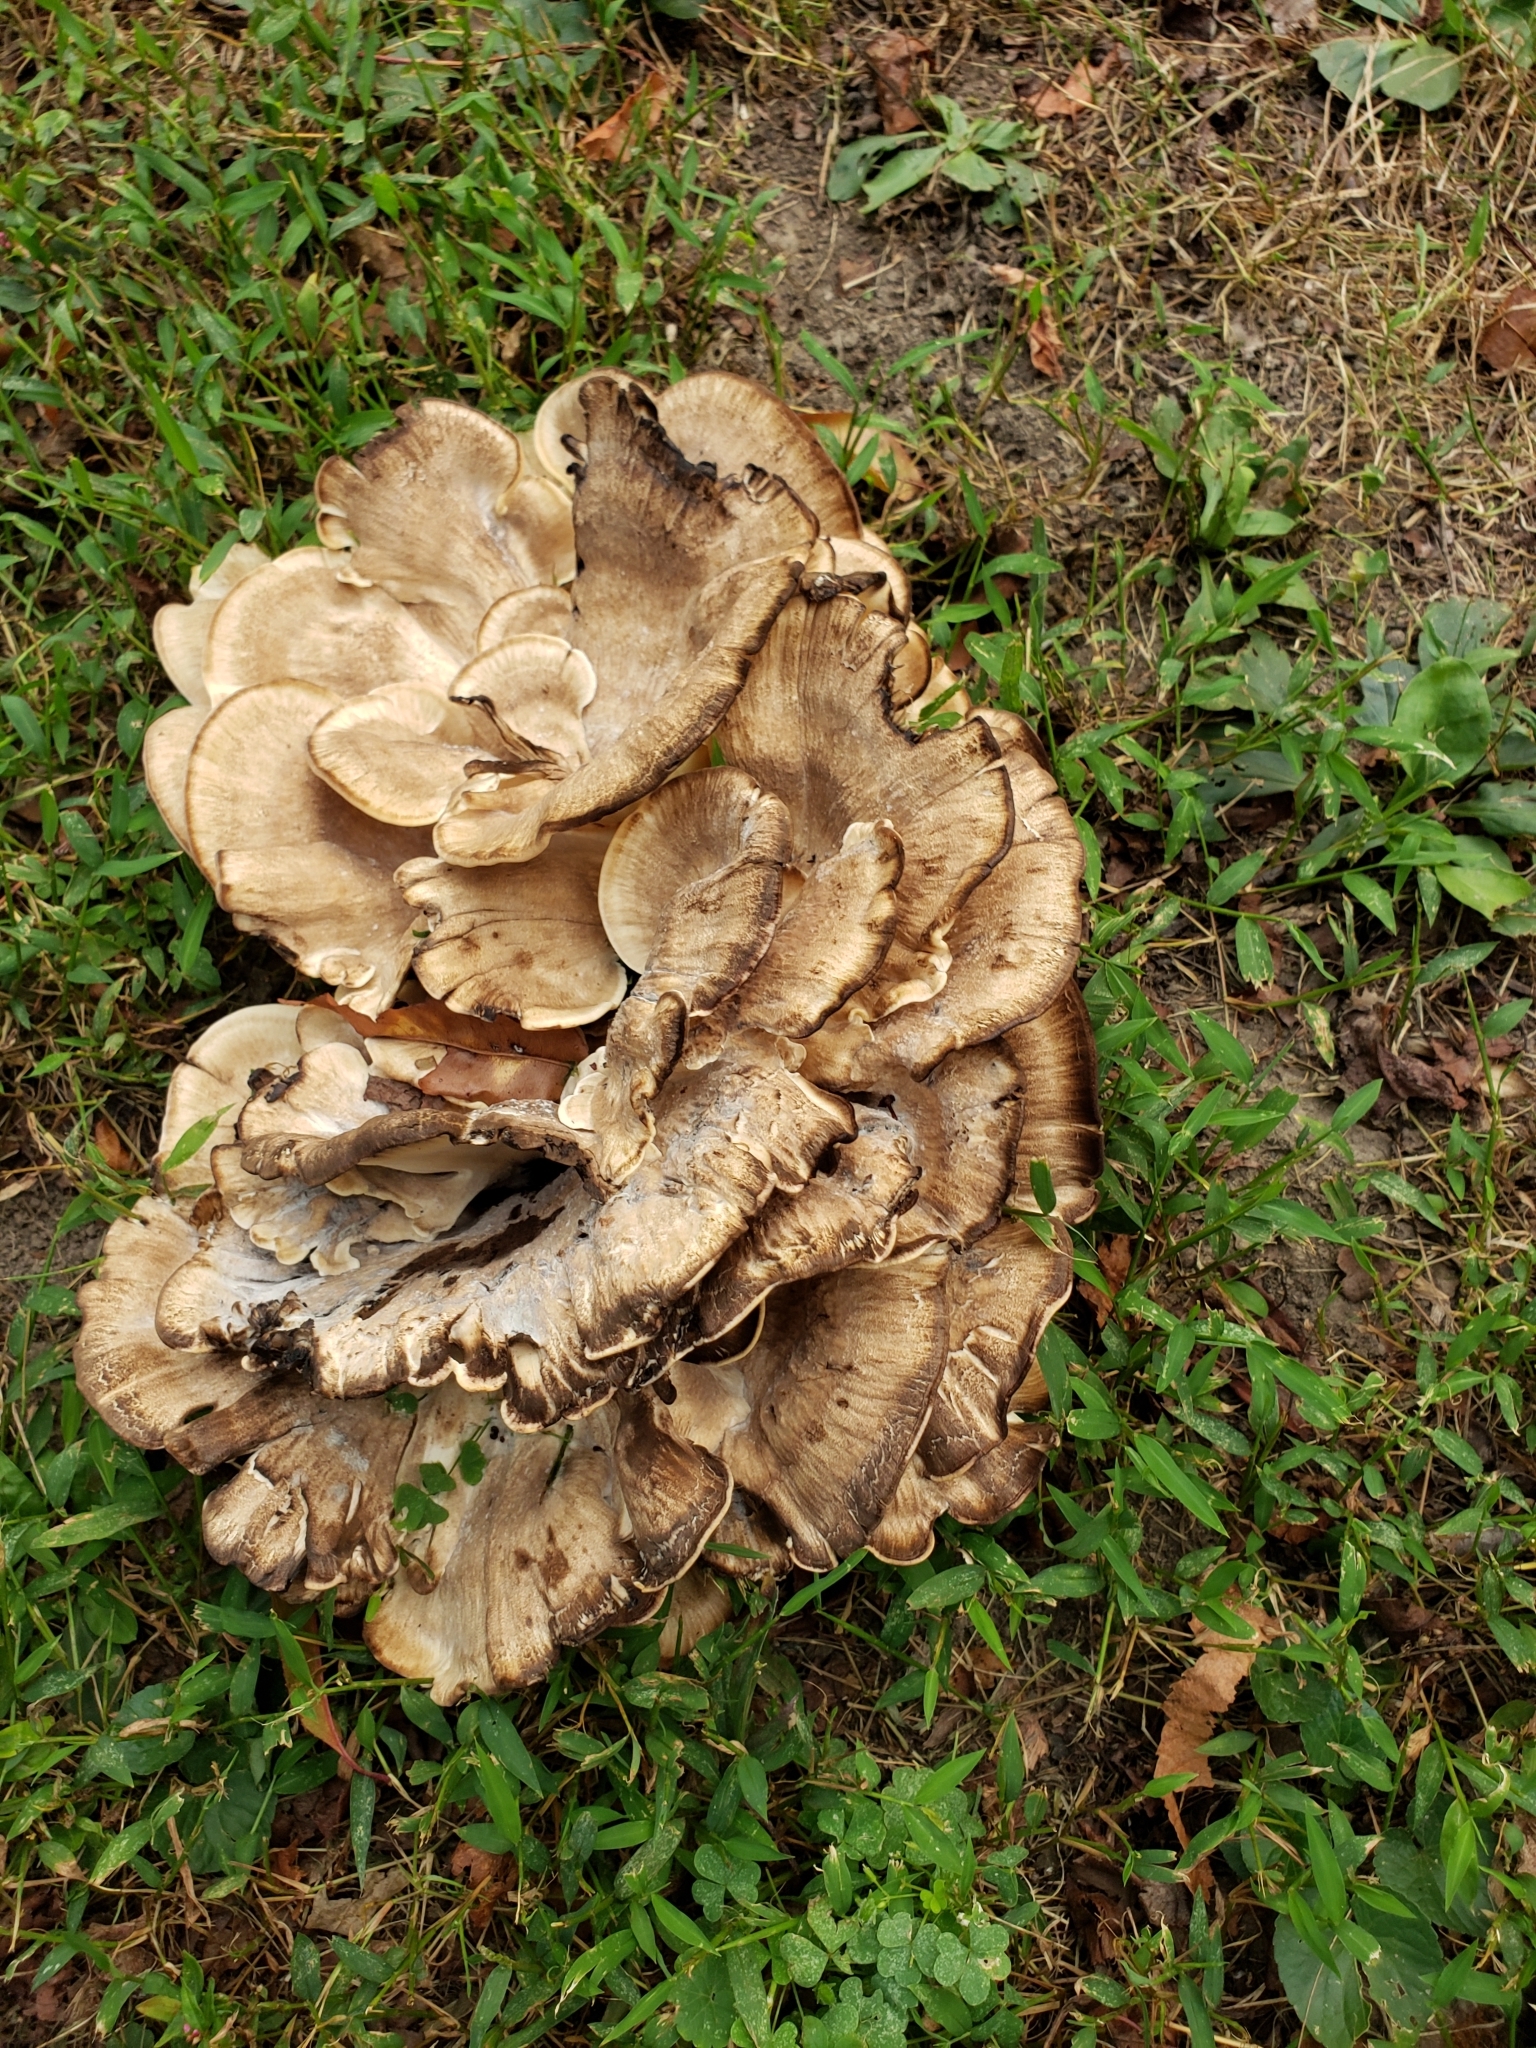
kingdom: Fungi
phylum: Basidiomycota
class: Agaricomycetes
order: Polyporales
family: Meripilaceae
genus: Meripilus
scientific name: Meripilus sumstinei
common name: Black-staining polypore
